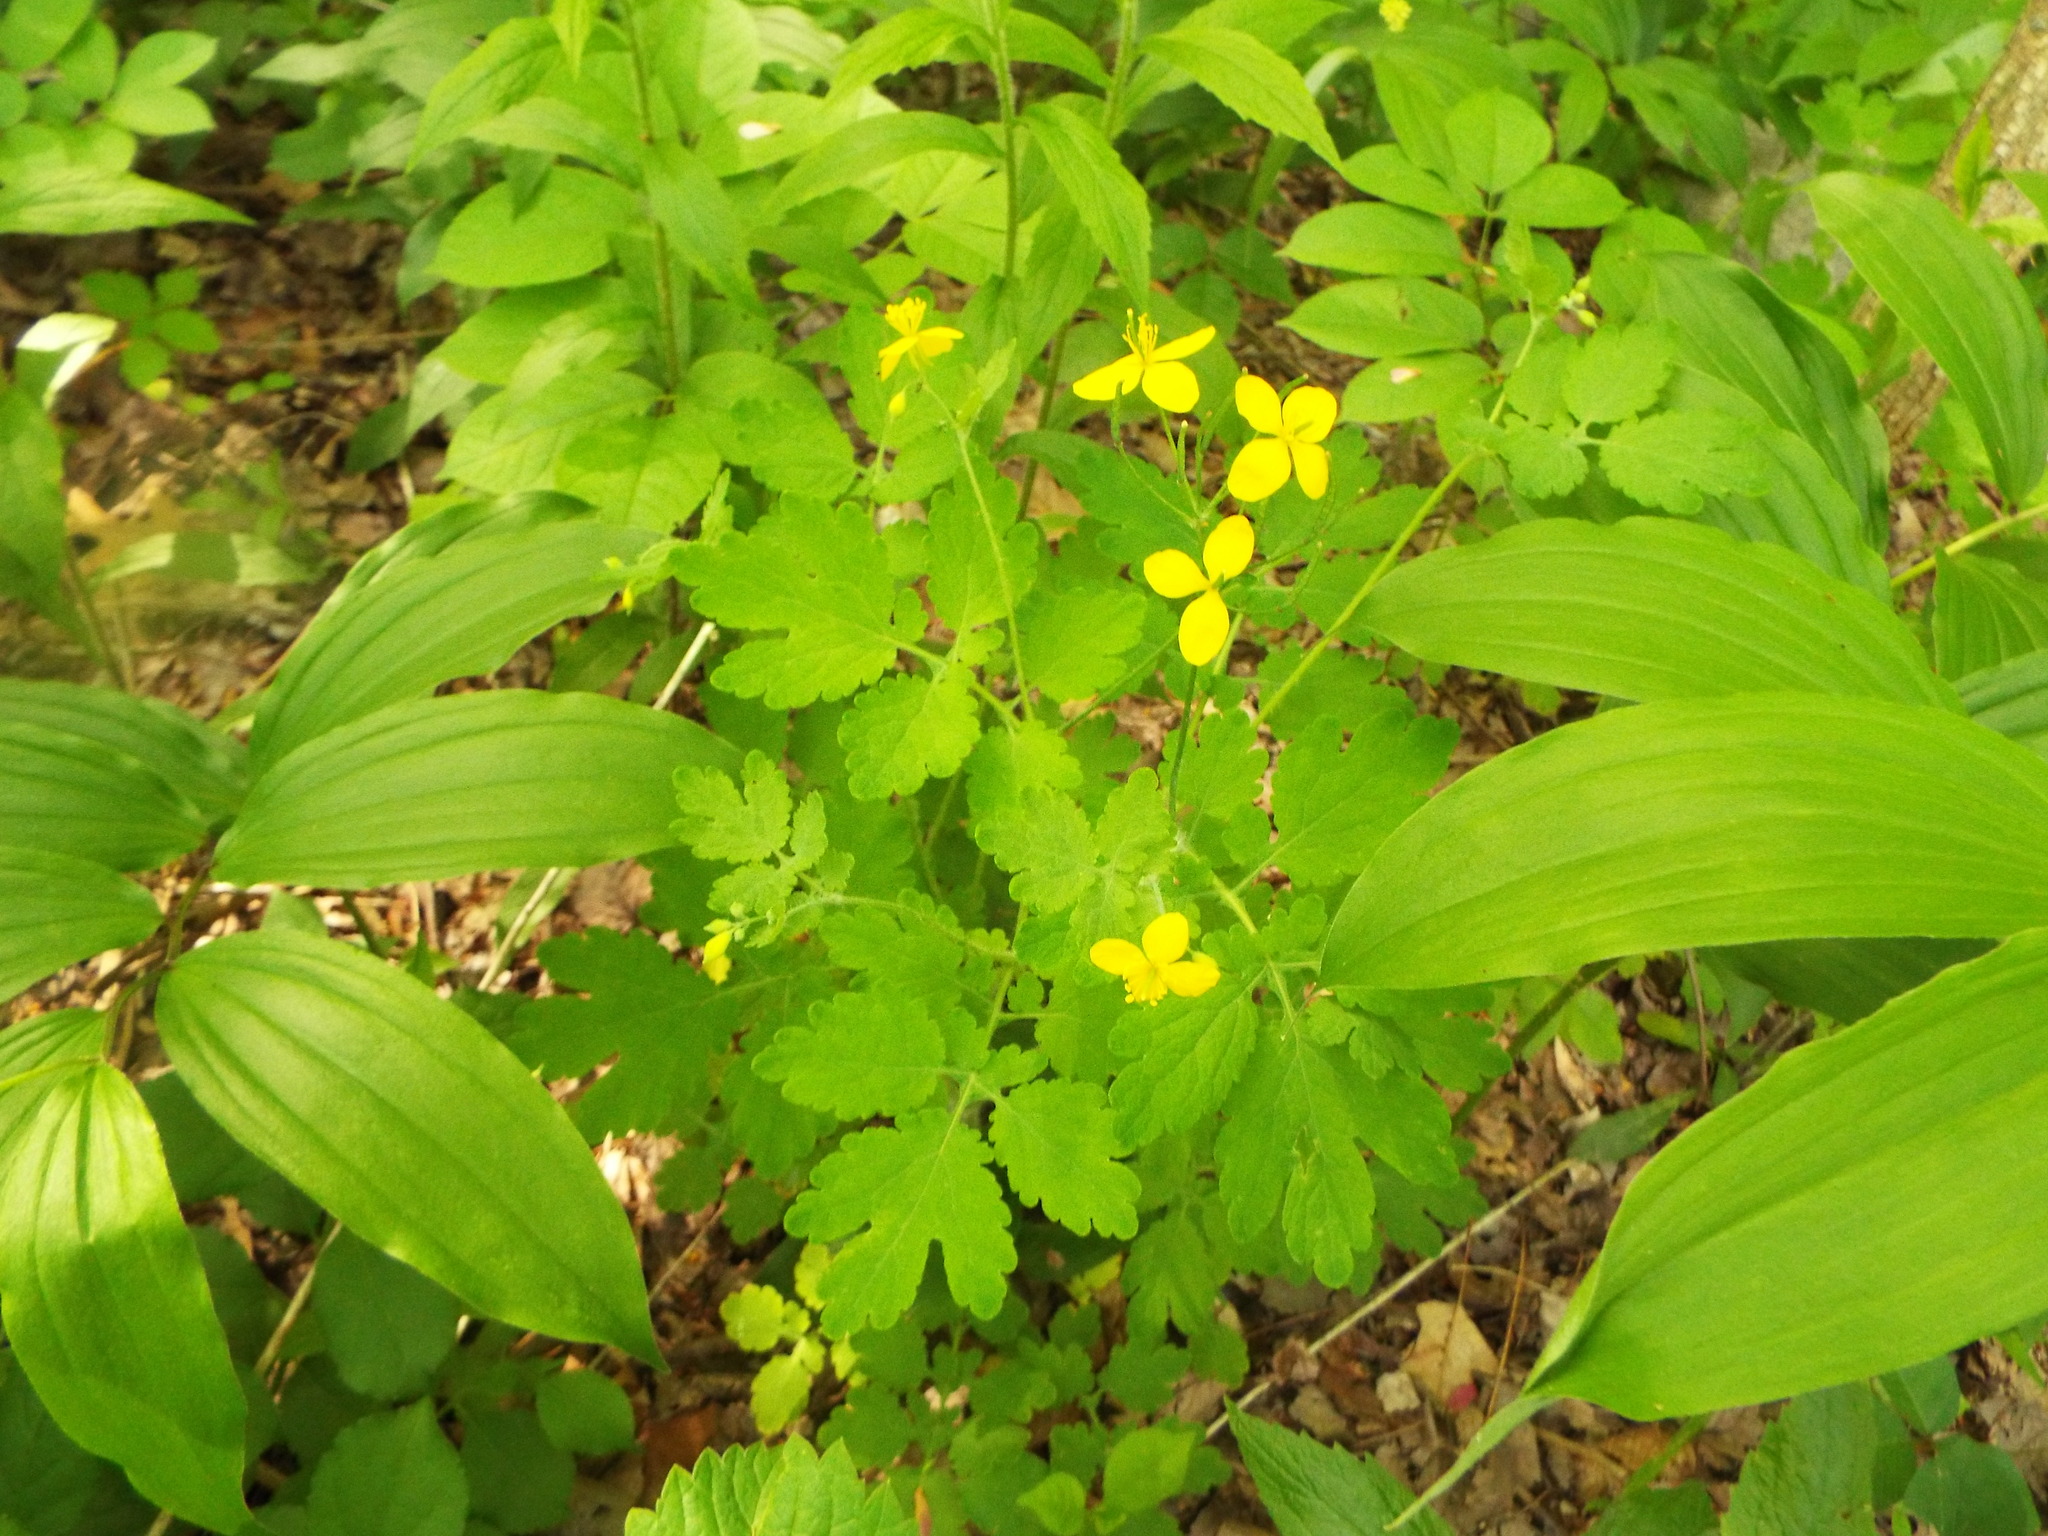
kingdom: Plantae
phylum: Tracheophyta
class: Magnoliopsida
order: Ranunculales
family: Papaveraceae
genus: Chelidonium
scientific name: Chelidonium majus
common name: Greater celandine
